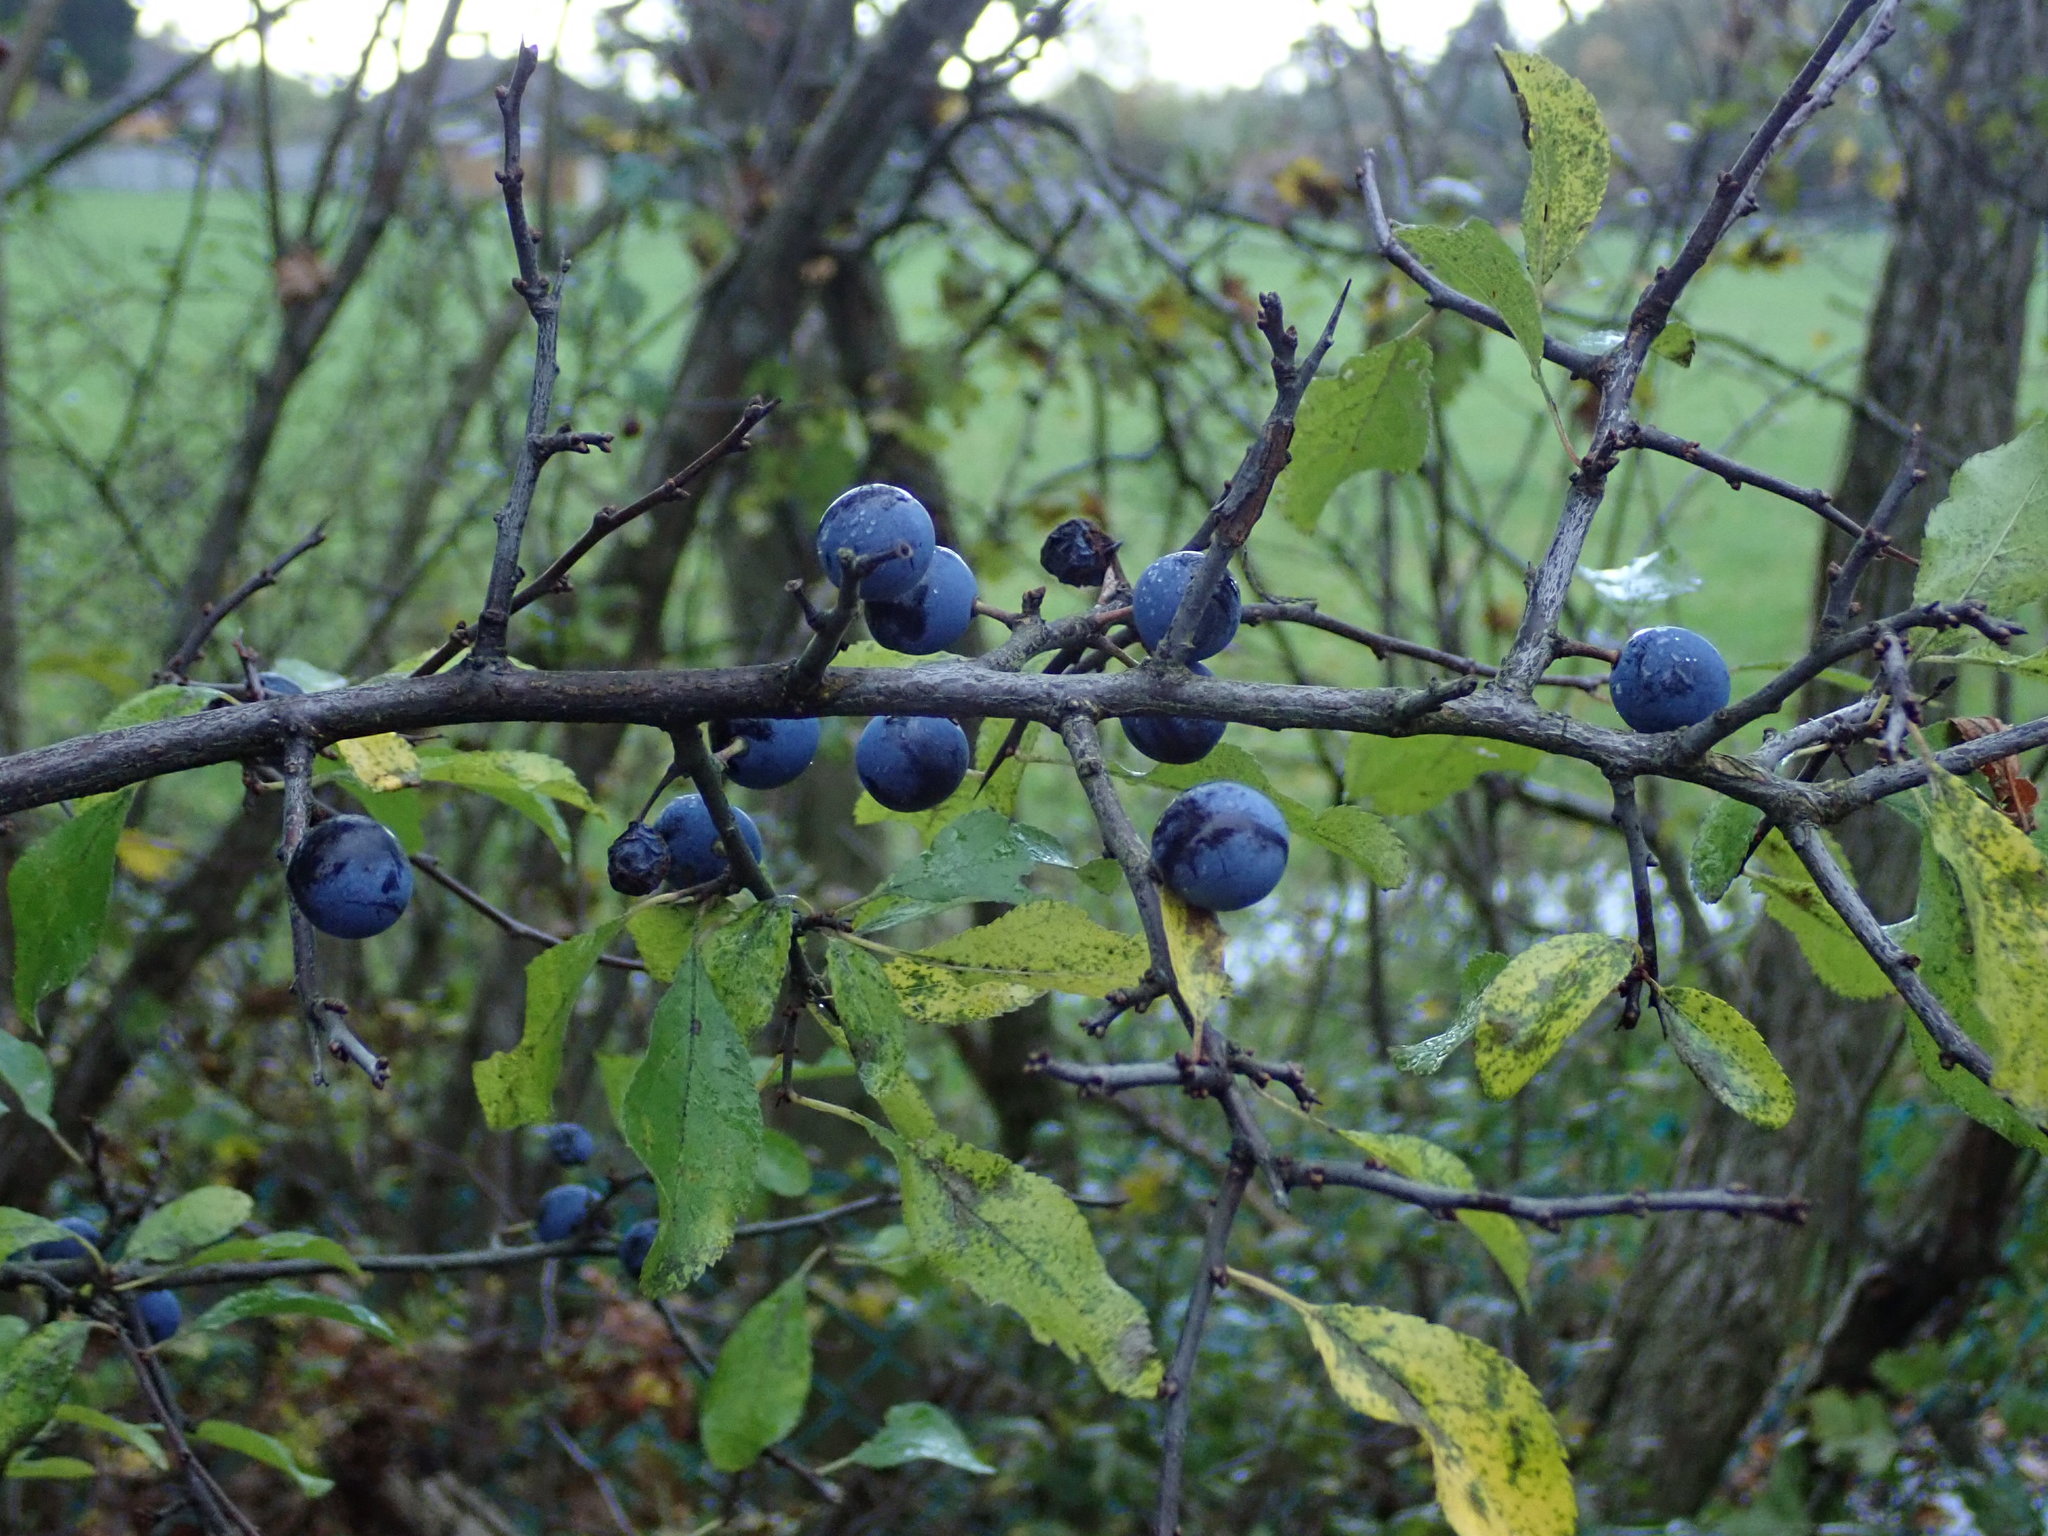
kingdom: Plantae
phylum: Tracheophyta
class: Magnoliopsida
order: Rosales
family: Rosaceae
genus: Prunus
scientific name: Prunus spinosa
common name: Blackthorn
